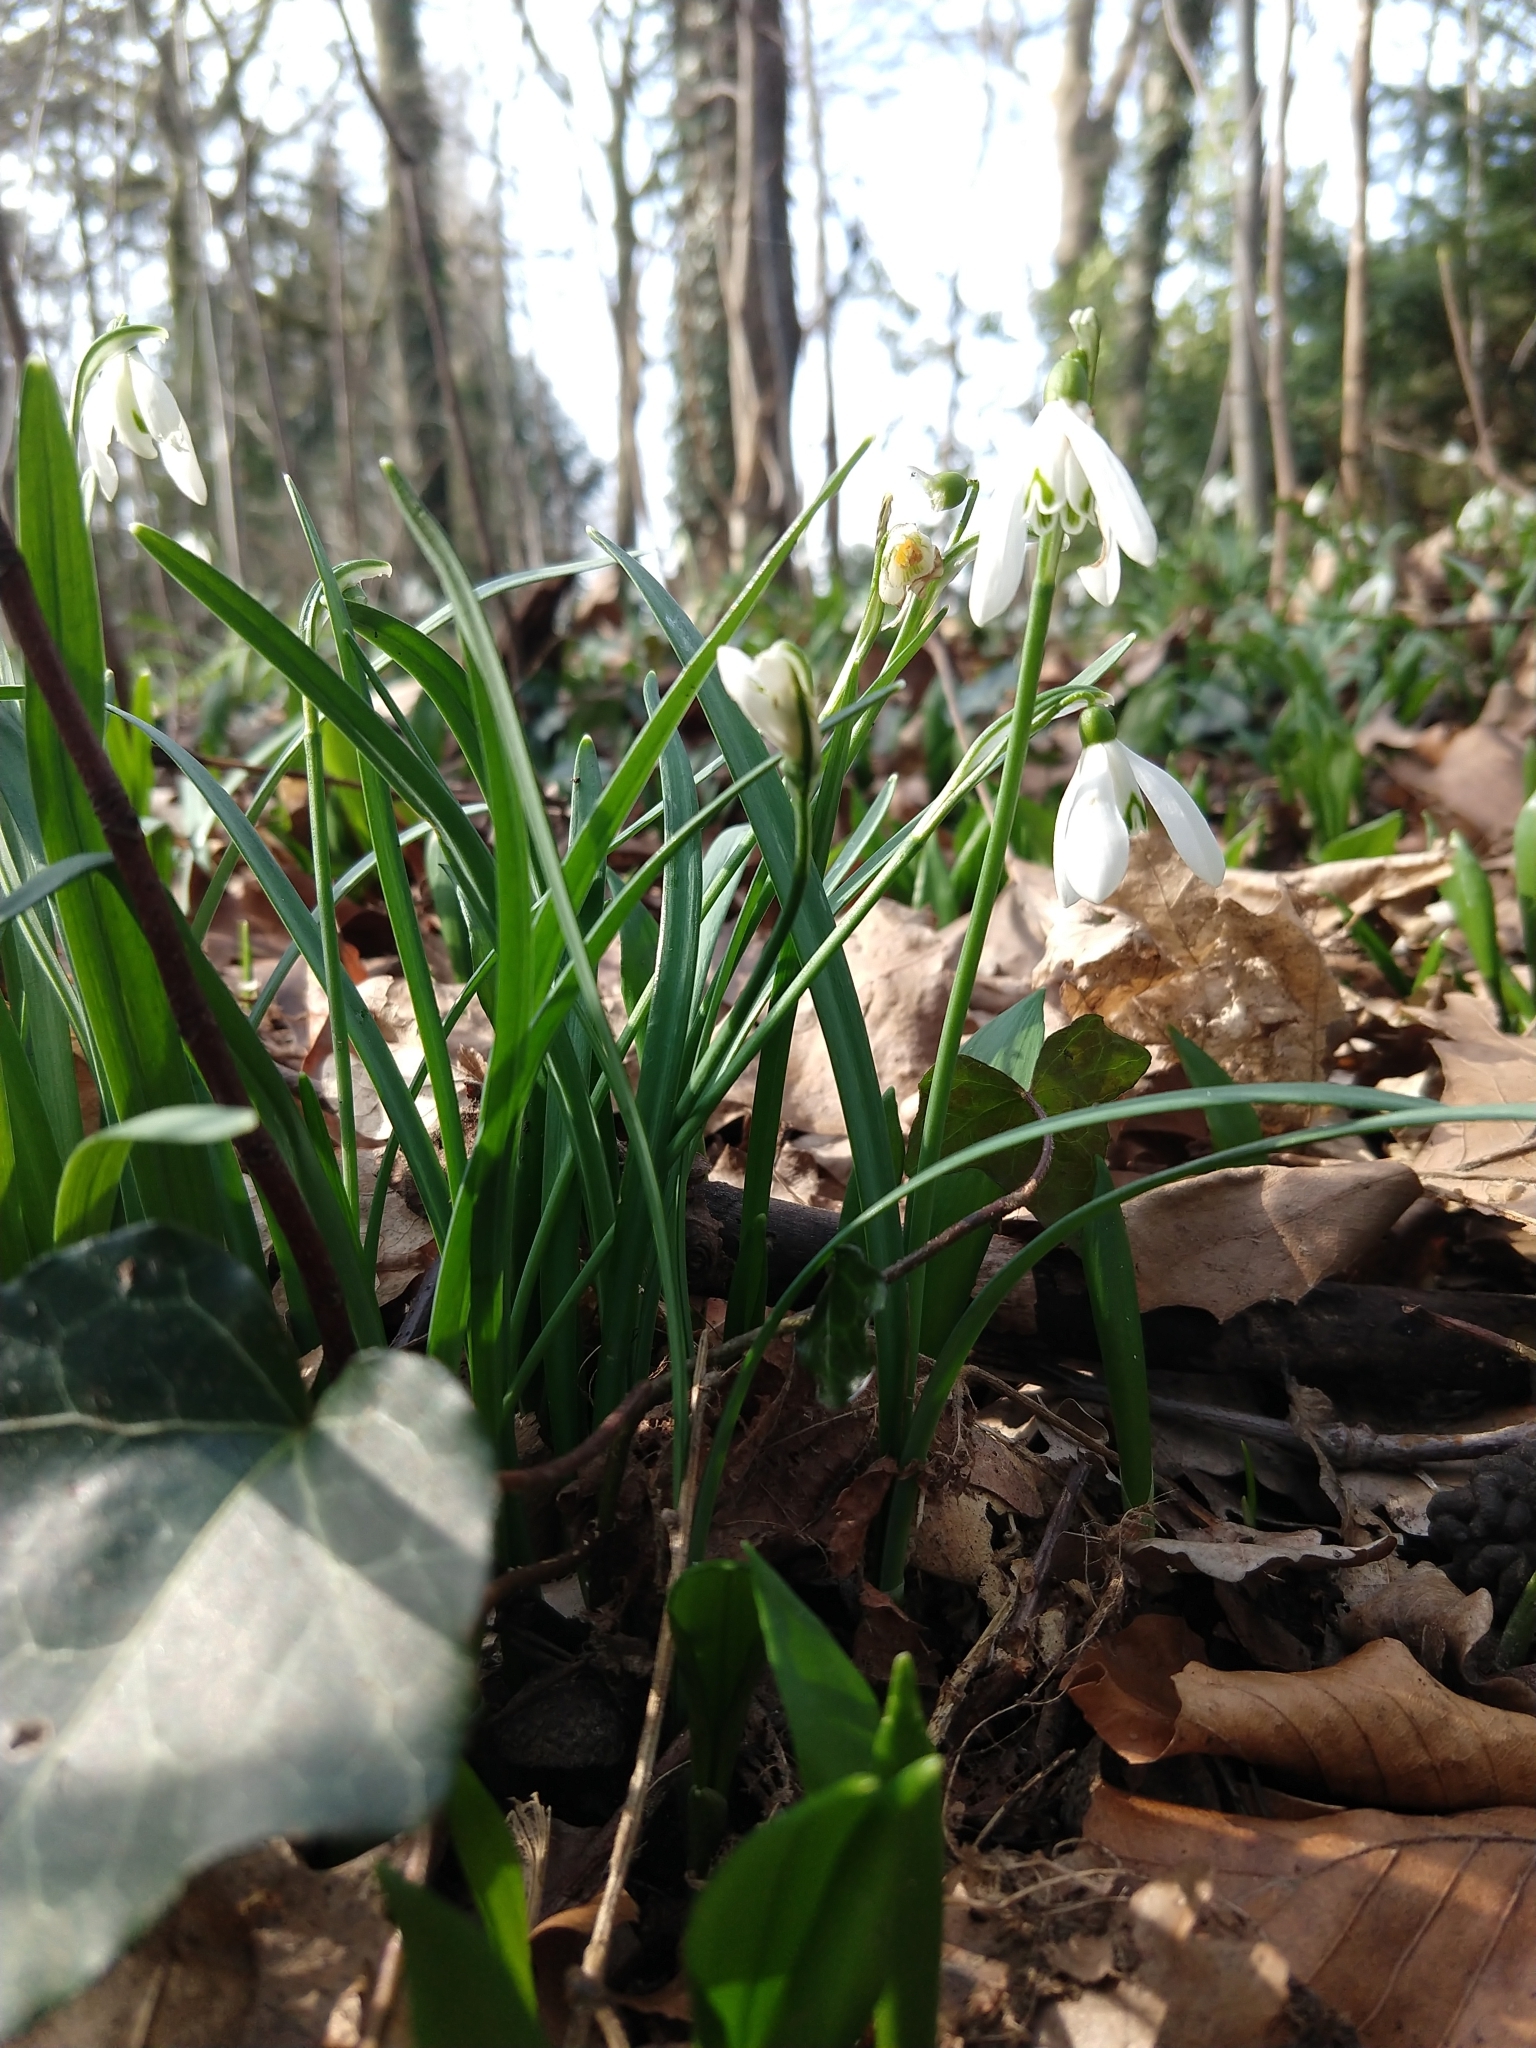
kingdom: Plantae
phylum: Tracheophyta
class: Liliopsida
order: Asparagales
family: Amaryllidaceae
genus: Galanthus
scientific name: Galanthus nivalis
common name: Snowdrop
